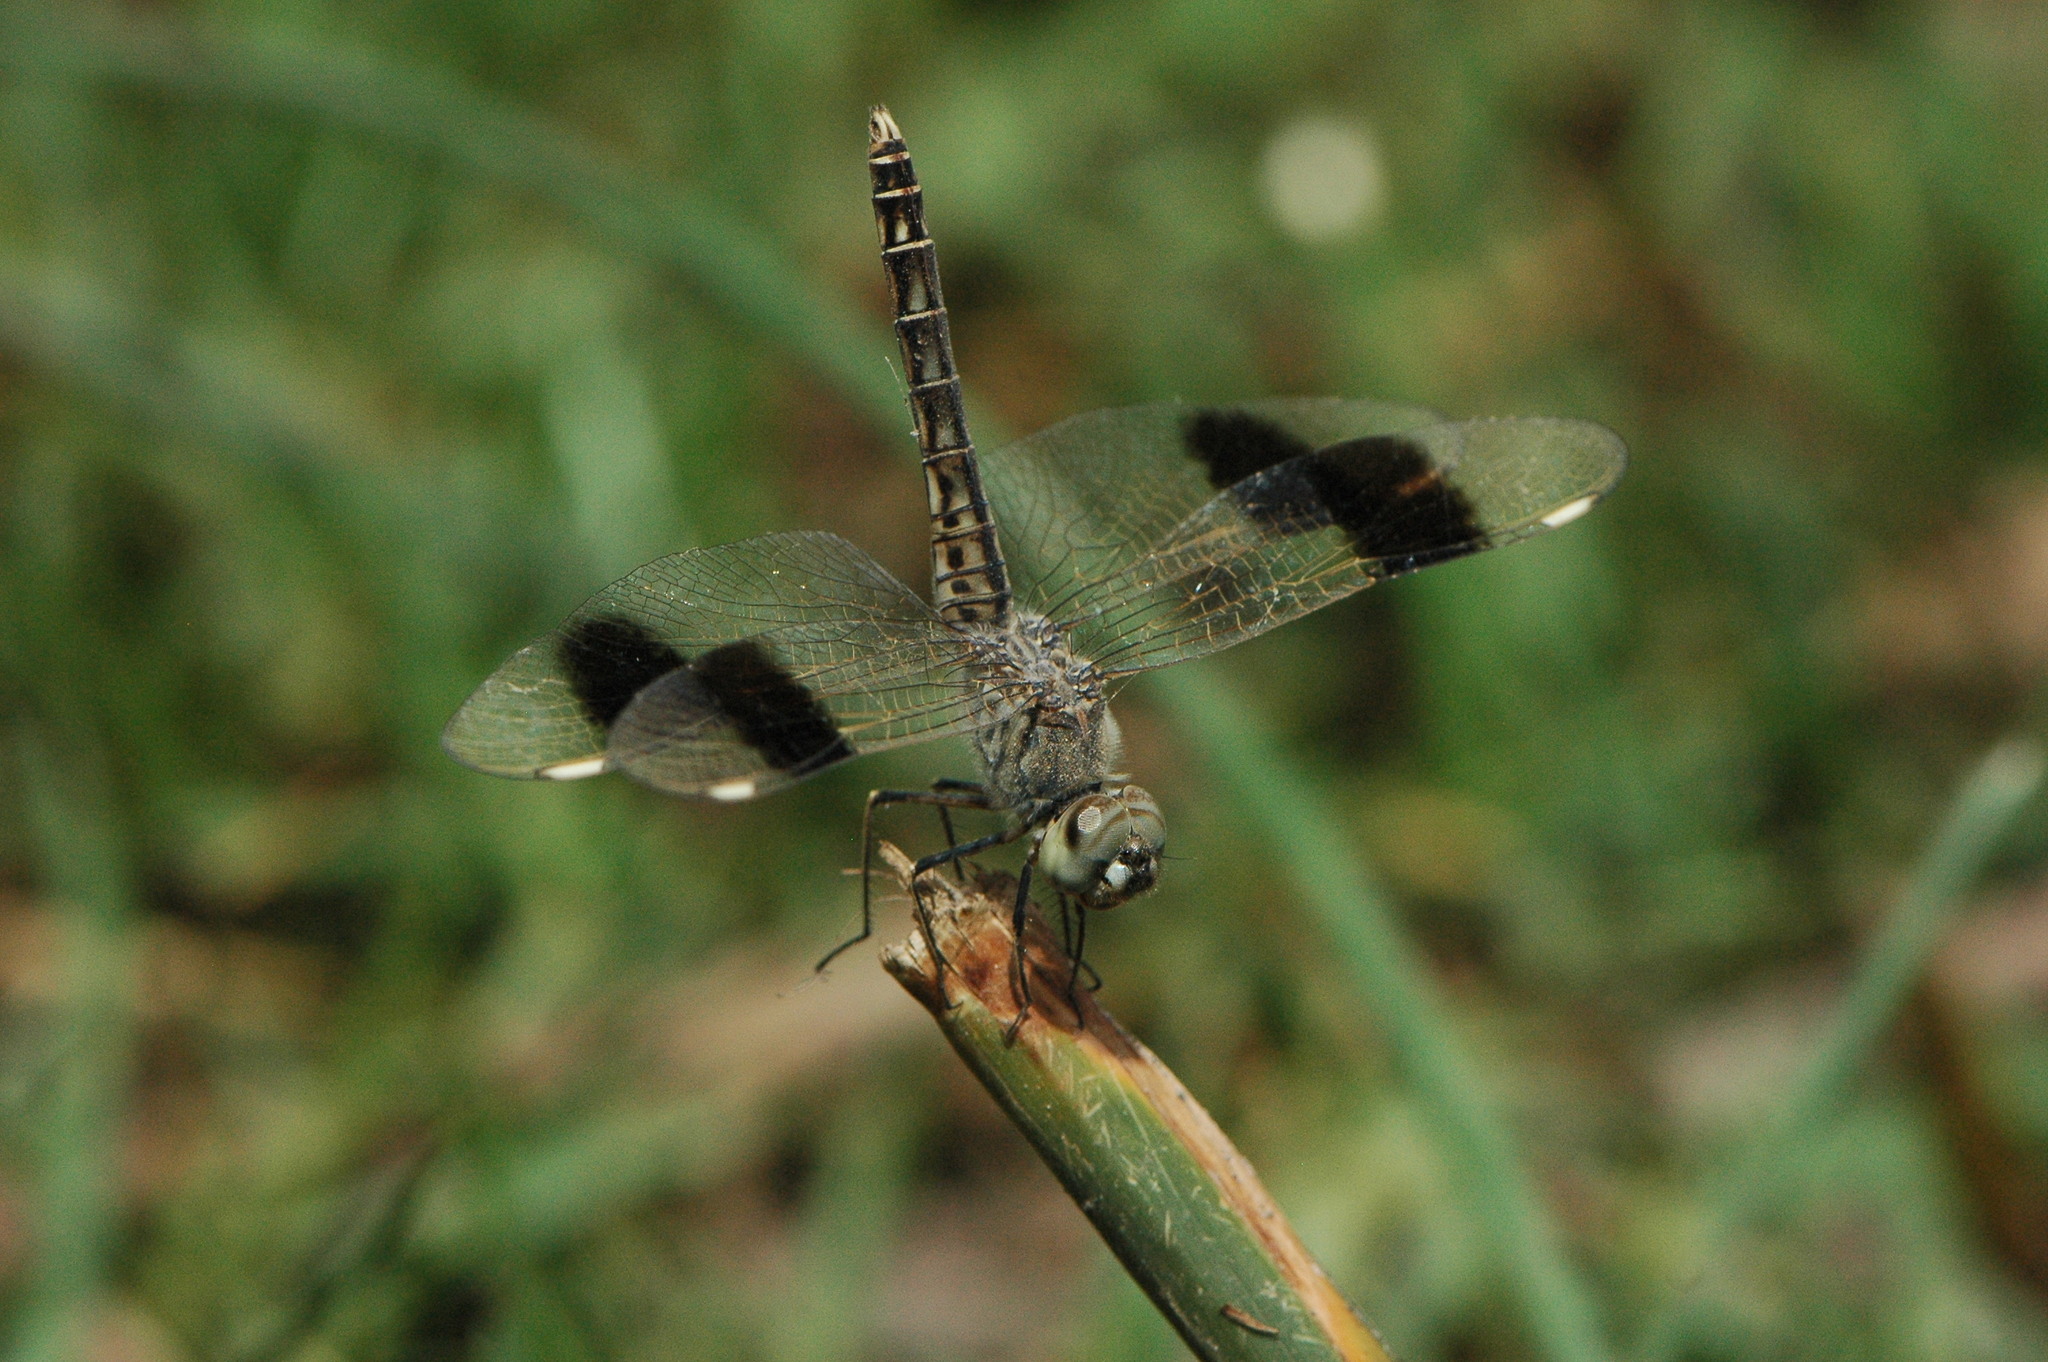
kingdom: Animalia
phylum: Arthropoda
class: Insecta
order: Odonata
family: Libellulidae
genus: Brachythemis
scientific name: Brachythemis impartita
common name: Banded groundling
